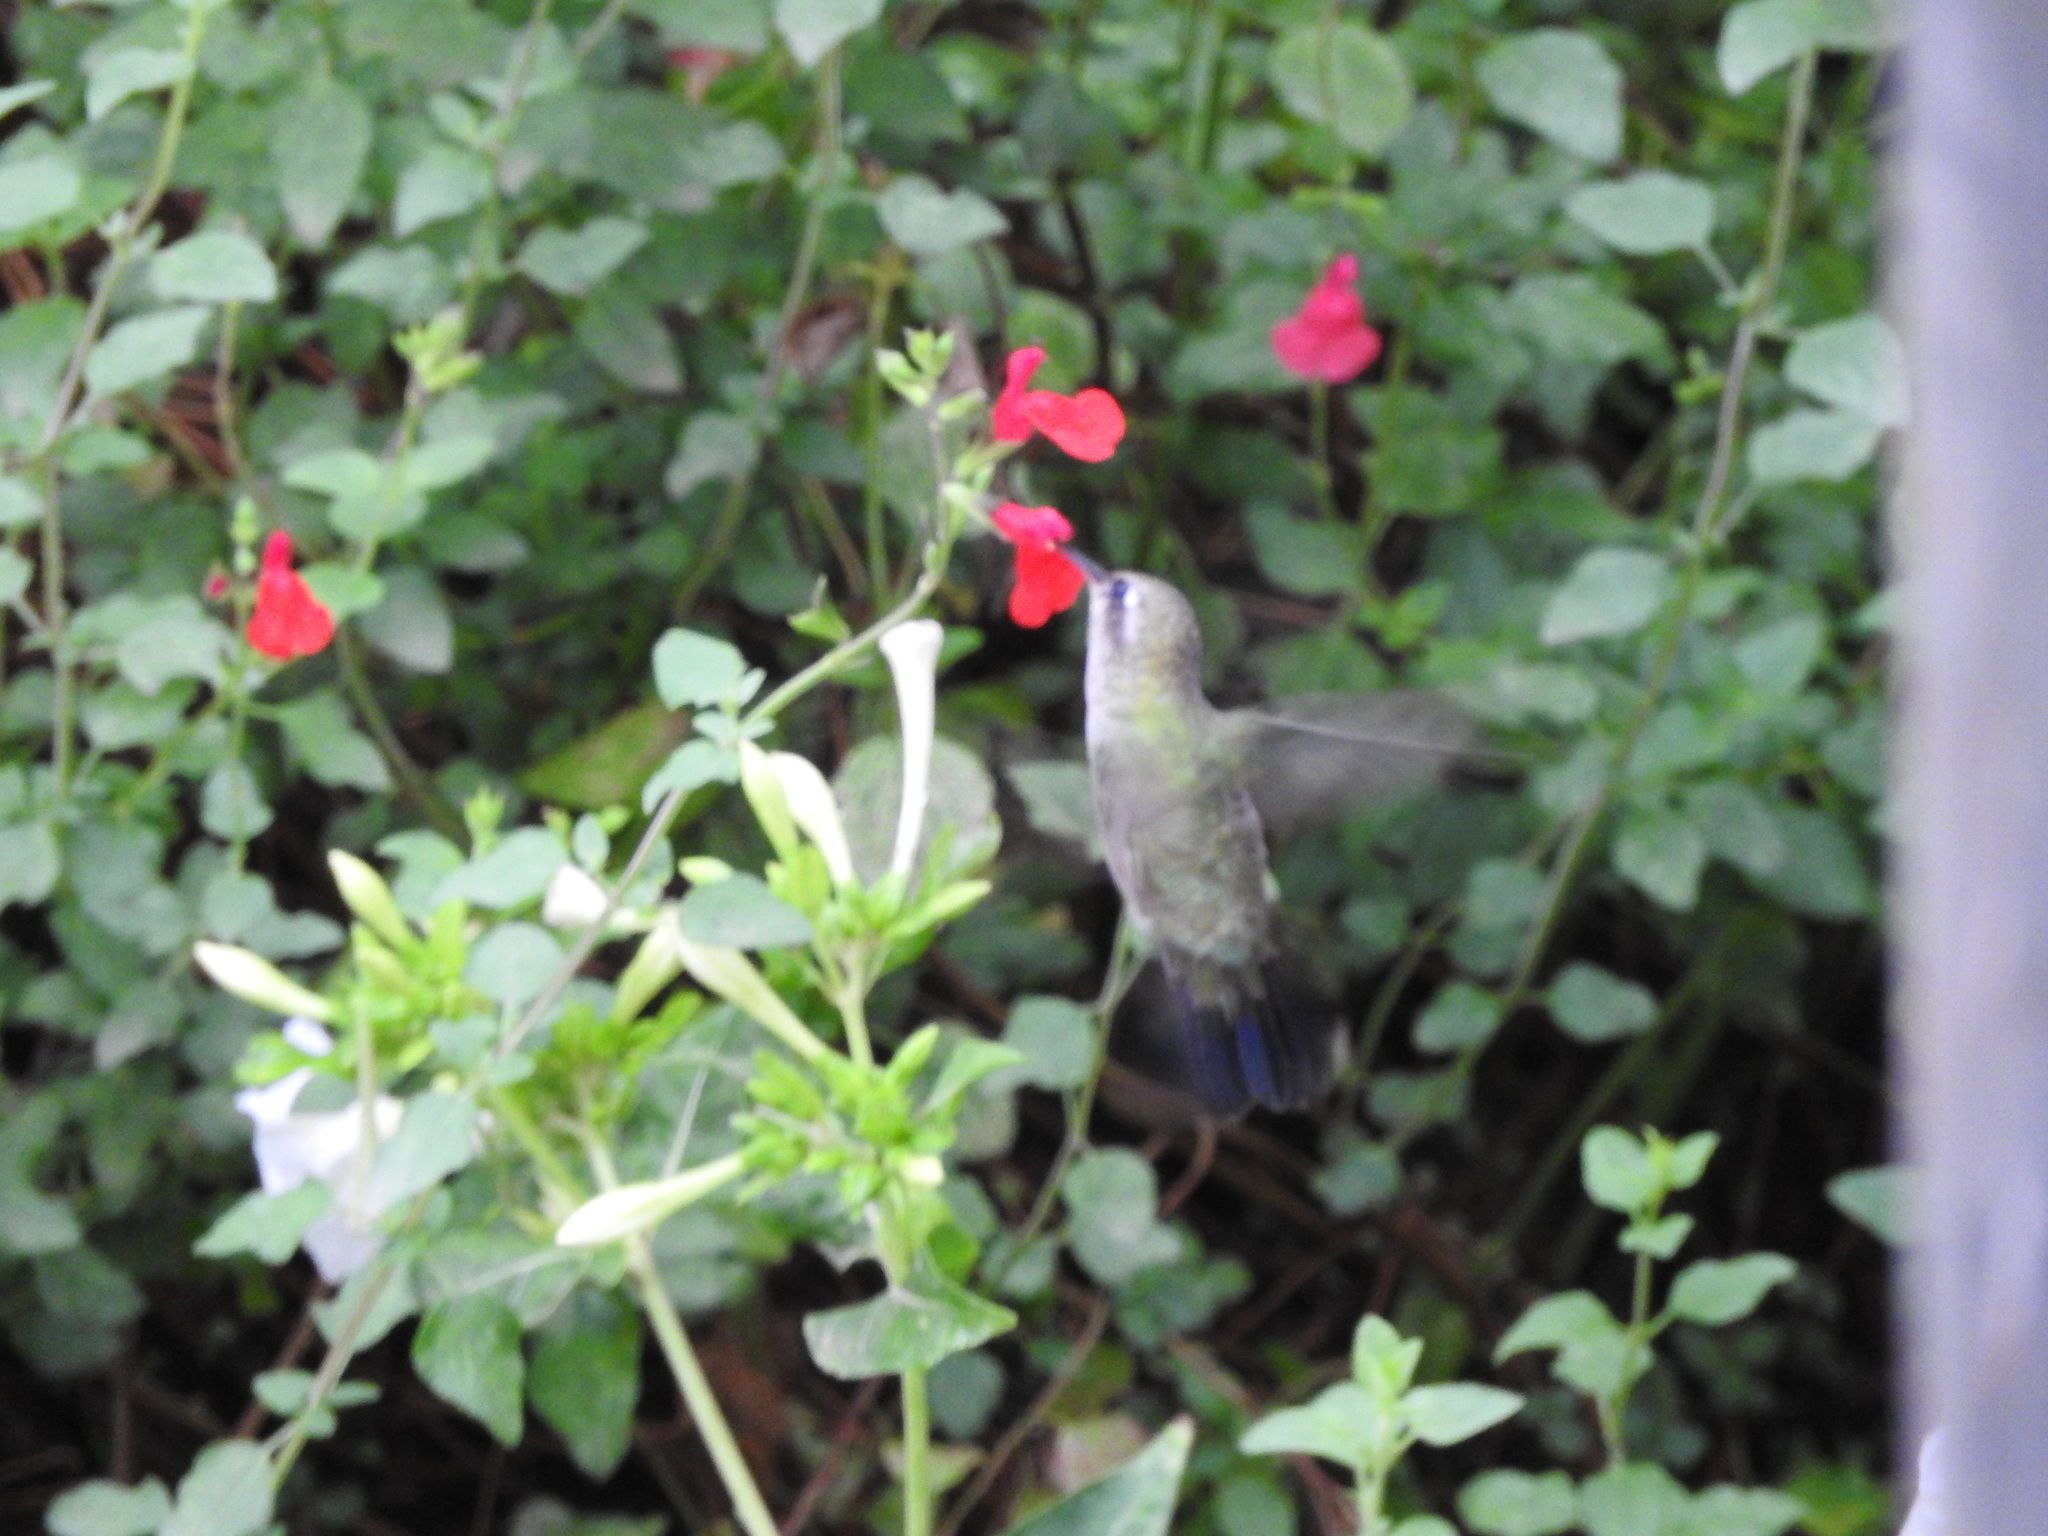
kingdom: Animalia
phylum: Chordata
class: Aves
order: Apodiformes
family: Trochilidae
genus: Cynanthus
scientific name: Cynanthus latirostris
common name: Broad-billed hummingbird
